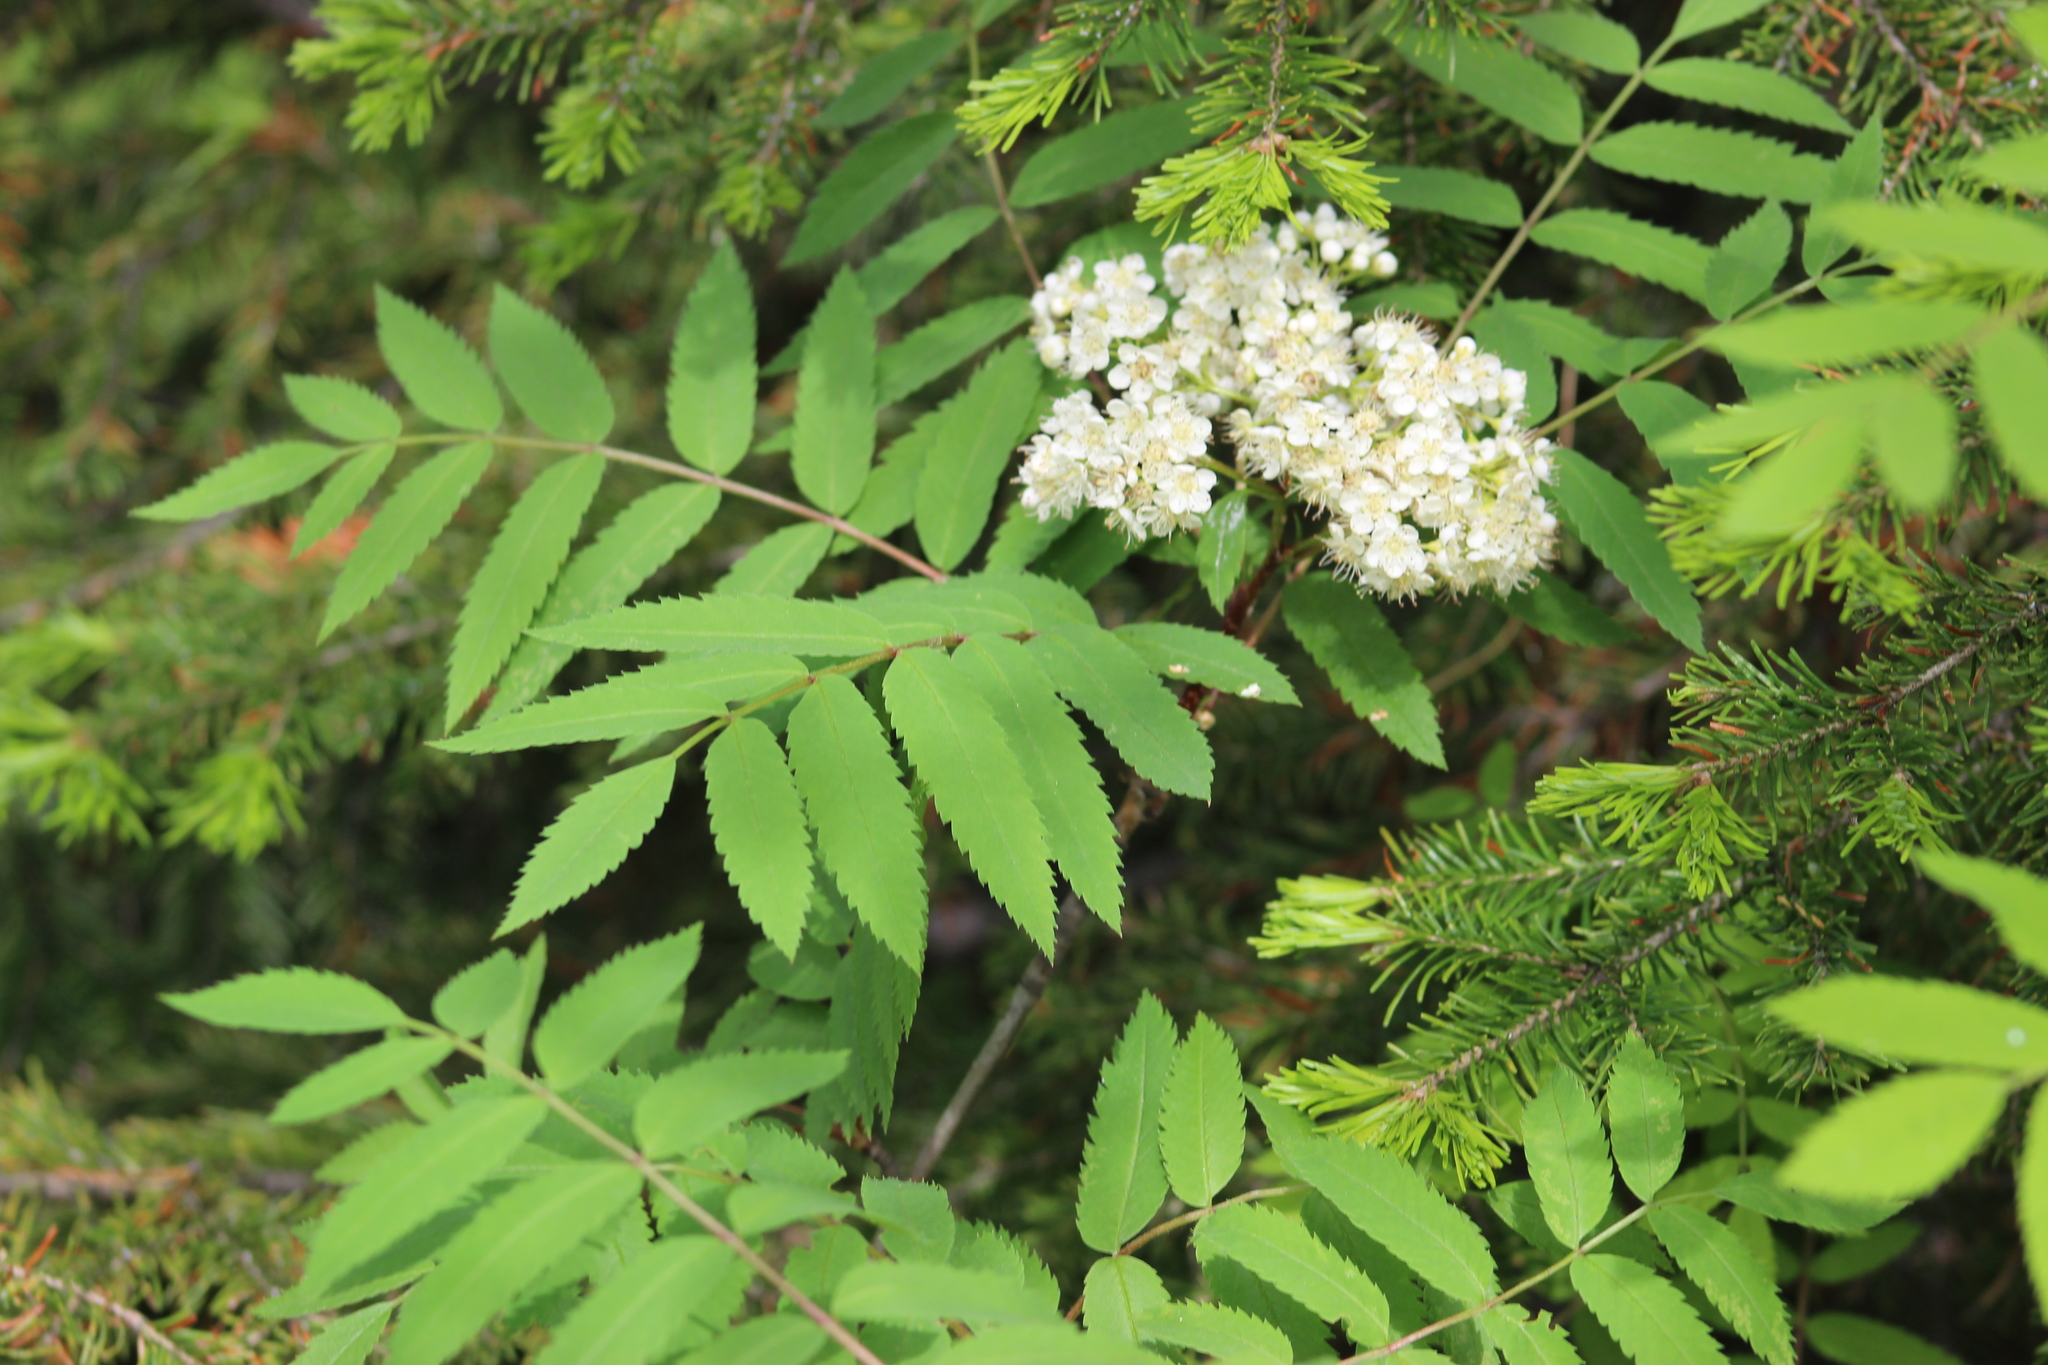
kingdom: Plantae
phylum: Tracheophyta
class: Magnoliopsida
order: Rosales
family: Rosaceae
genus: Sorbus
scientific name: Sorbus aucuparia
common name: Rowan
